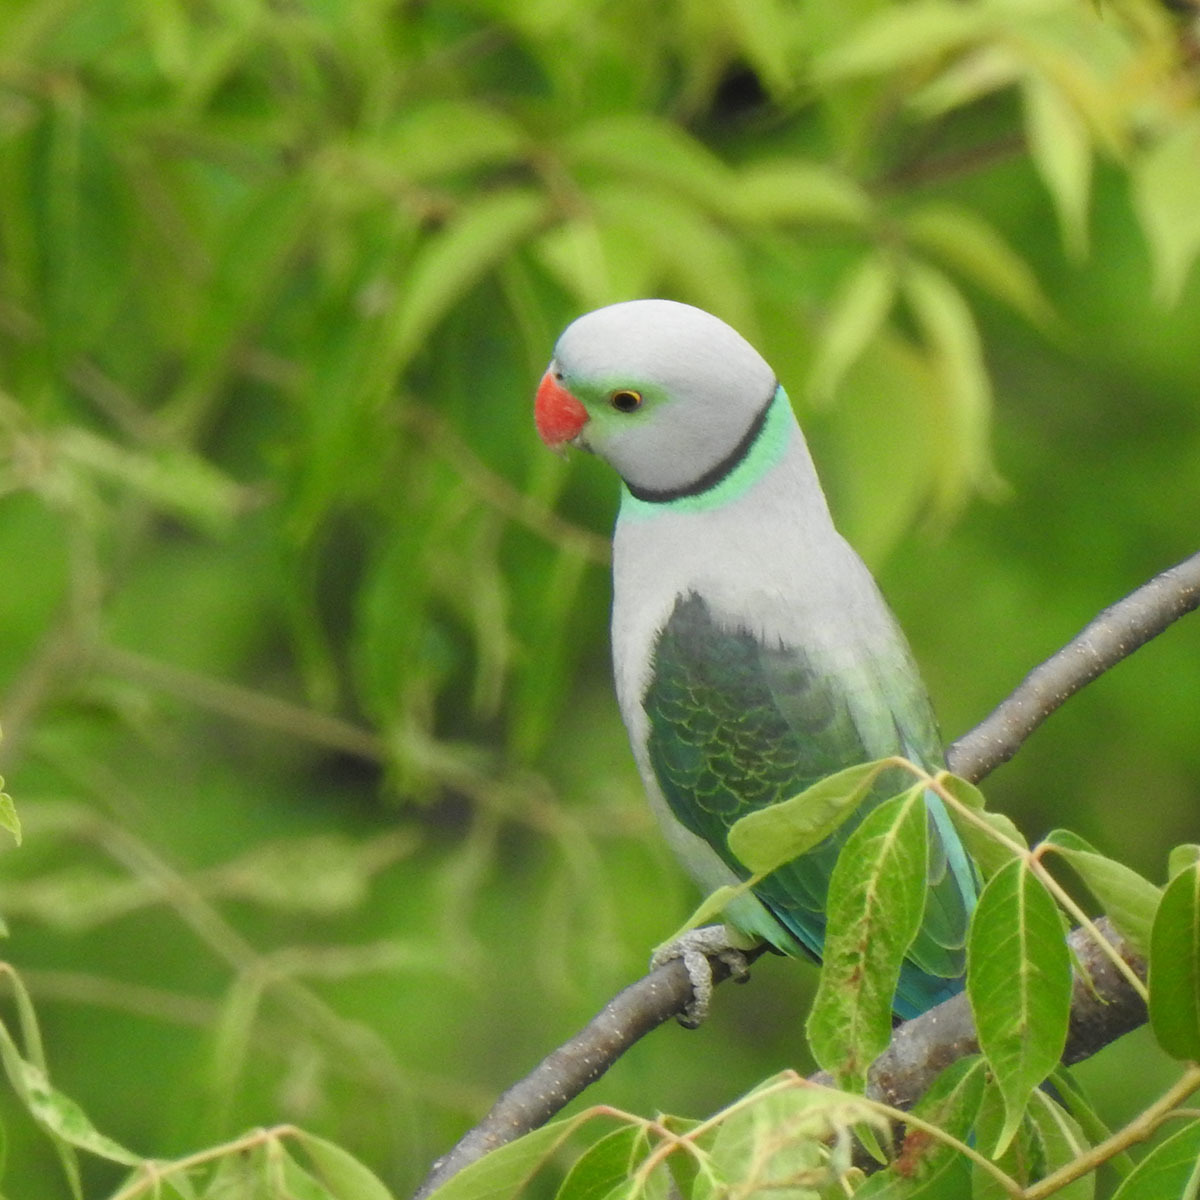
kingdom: Animalia
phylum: Chordata
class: Aves
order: Psittaciformes
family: Psittacidae
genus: Psittacula
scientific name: Psittacula columboides
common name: Blue-winged parakeet
